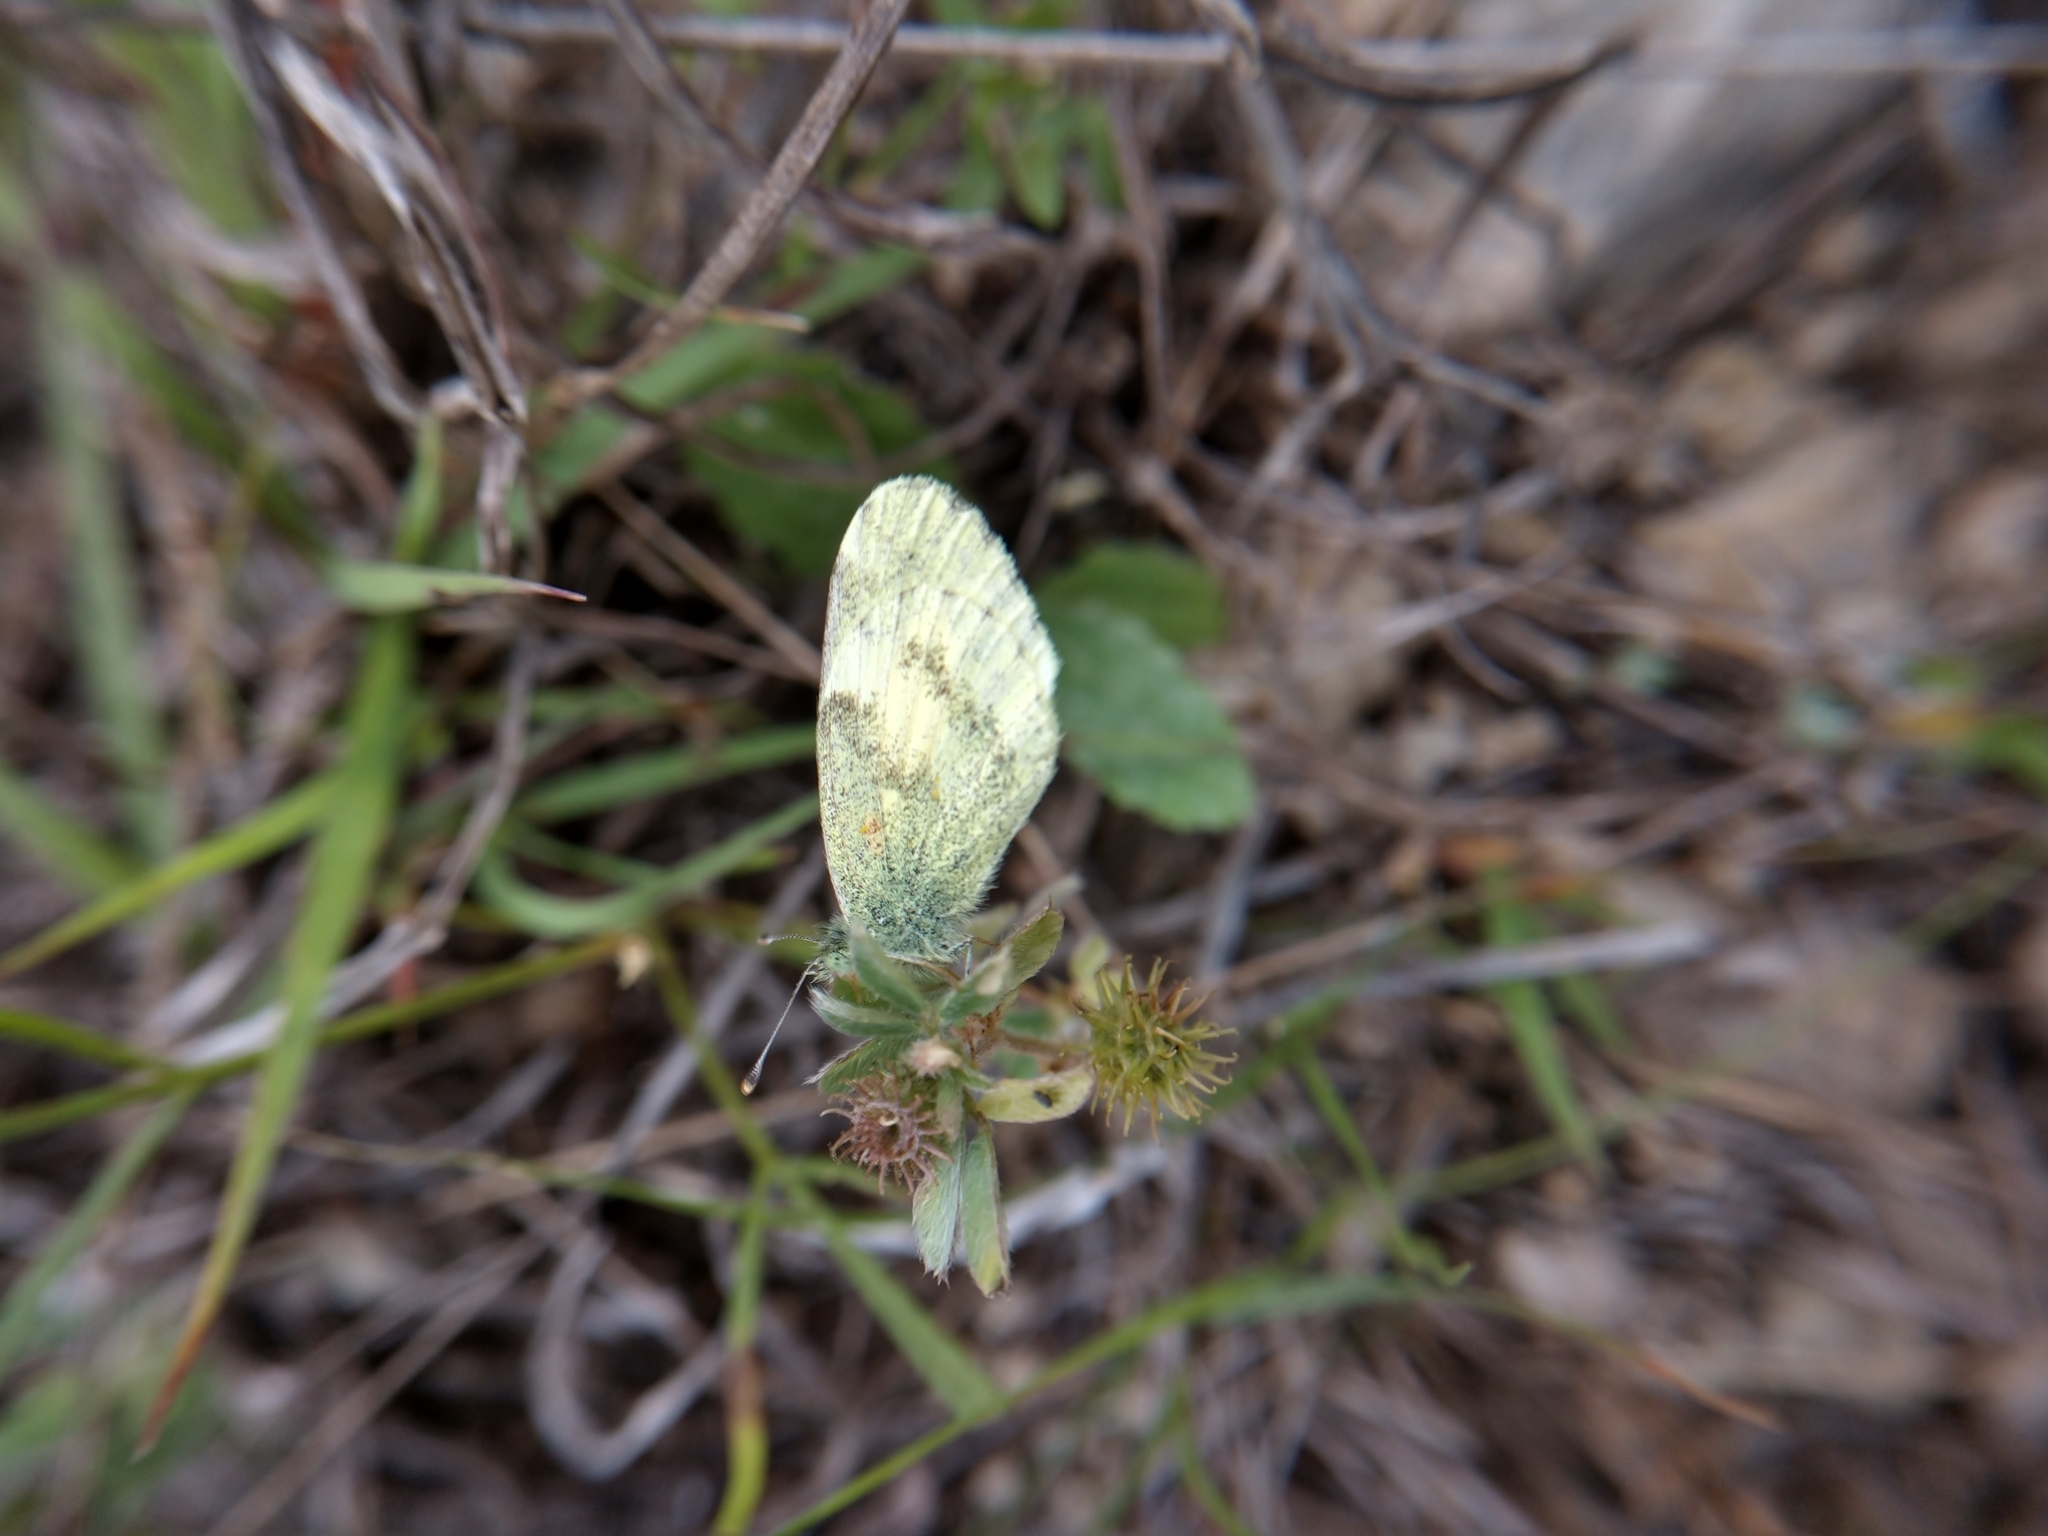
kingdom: Animalia
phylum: Arthropoda
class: Insecta
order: Lepidoptera
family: Pieridae
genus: Nathalis
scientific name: Nathalis iole
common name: Dainty sulphur
